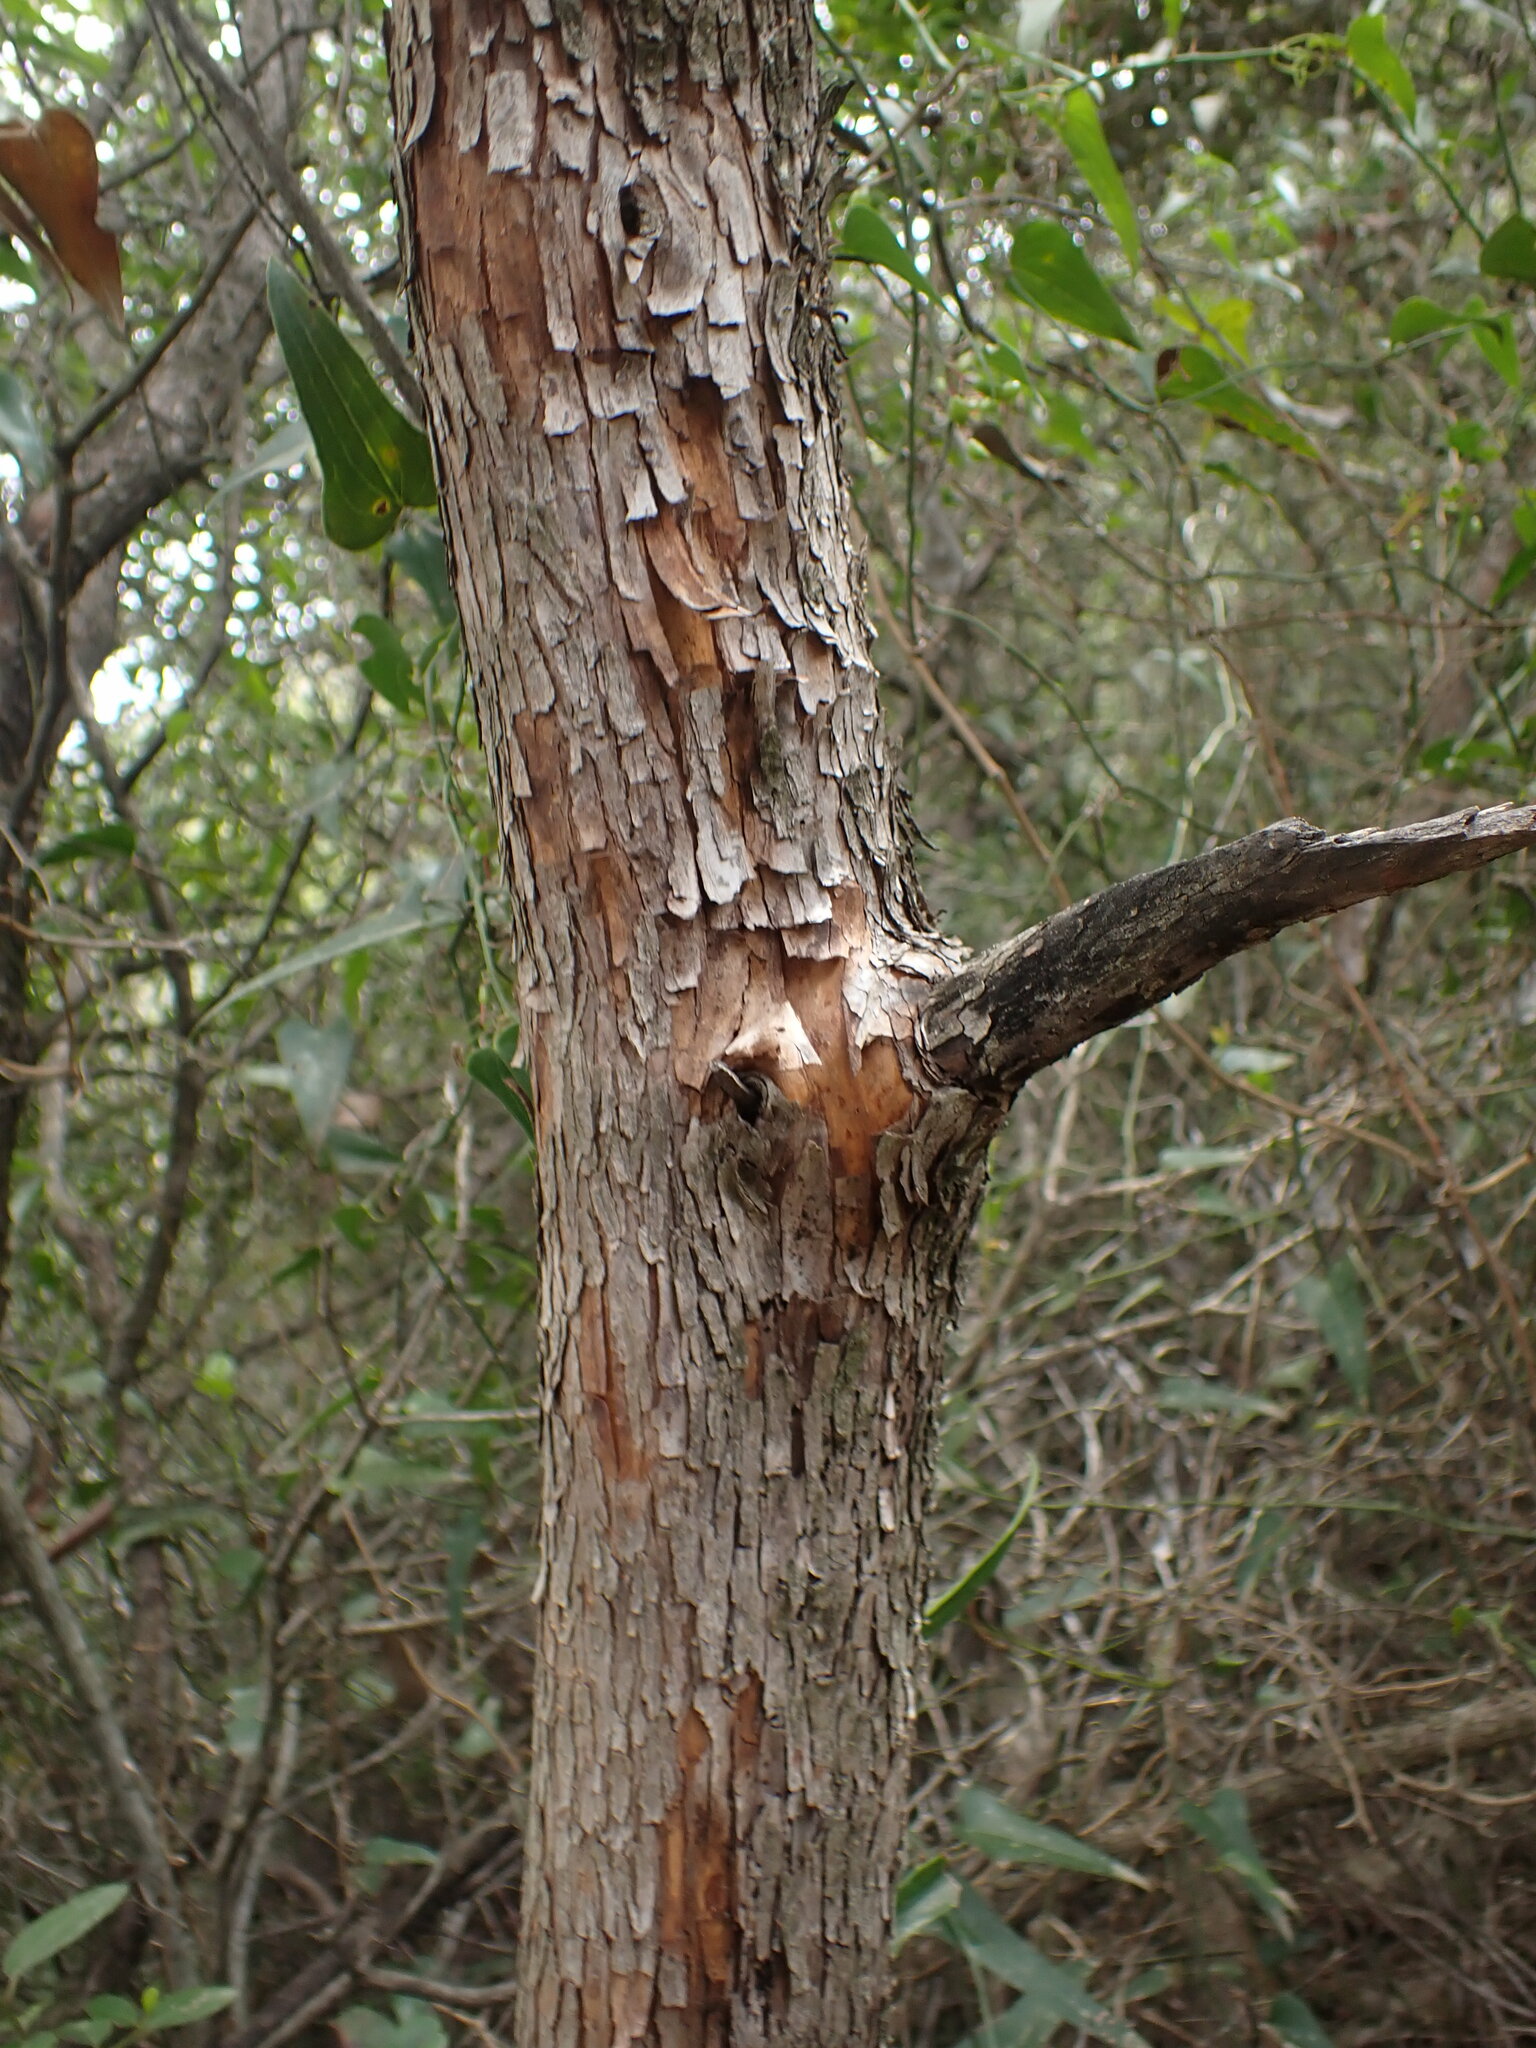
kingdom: Plantae
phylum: Tracheophyta
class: Magnoliopsida
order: Ericales
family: Ericaceae
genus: Arbutus
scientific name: Arbutus unedo
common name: Strawberry-tree
